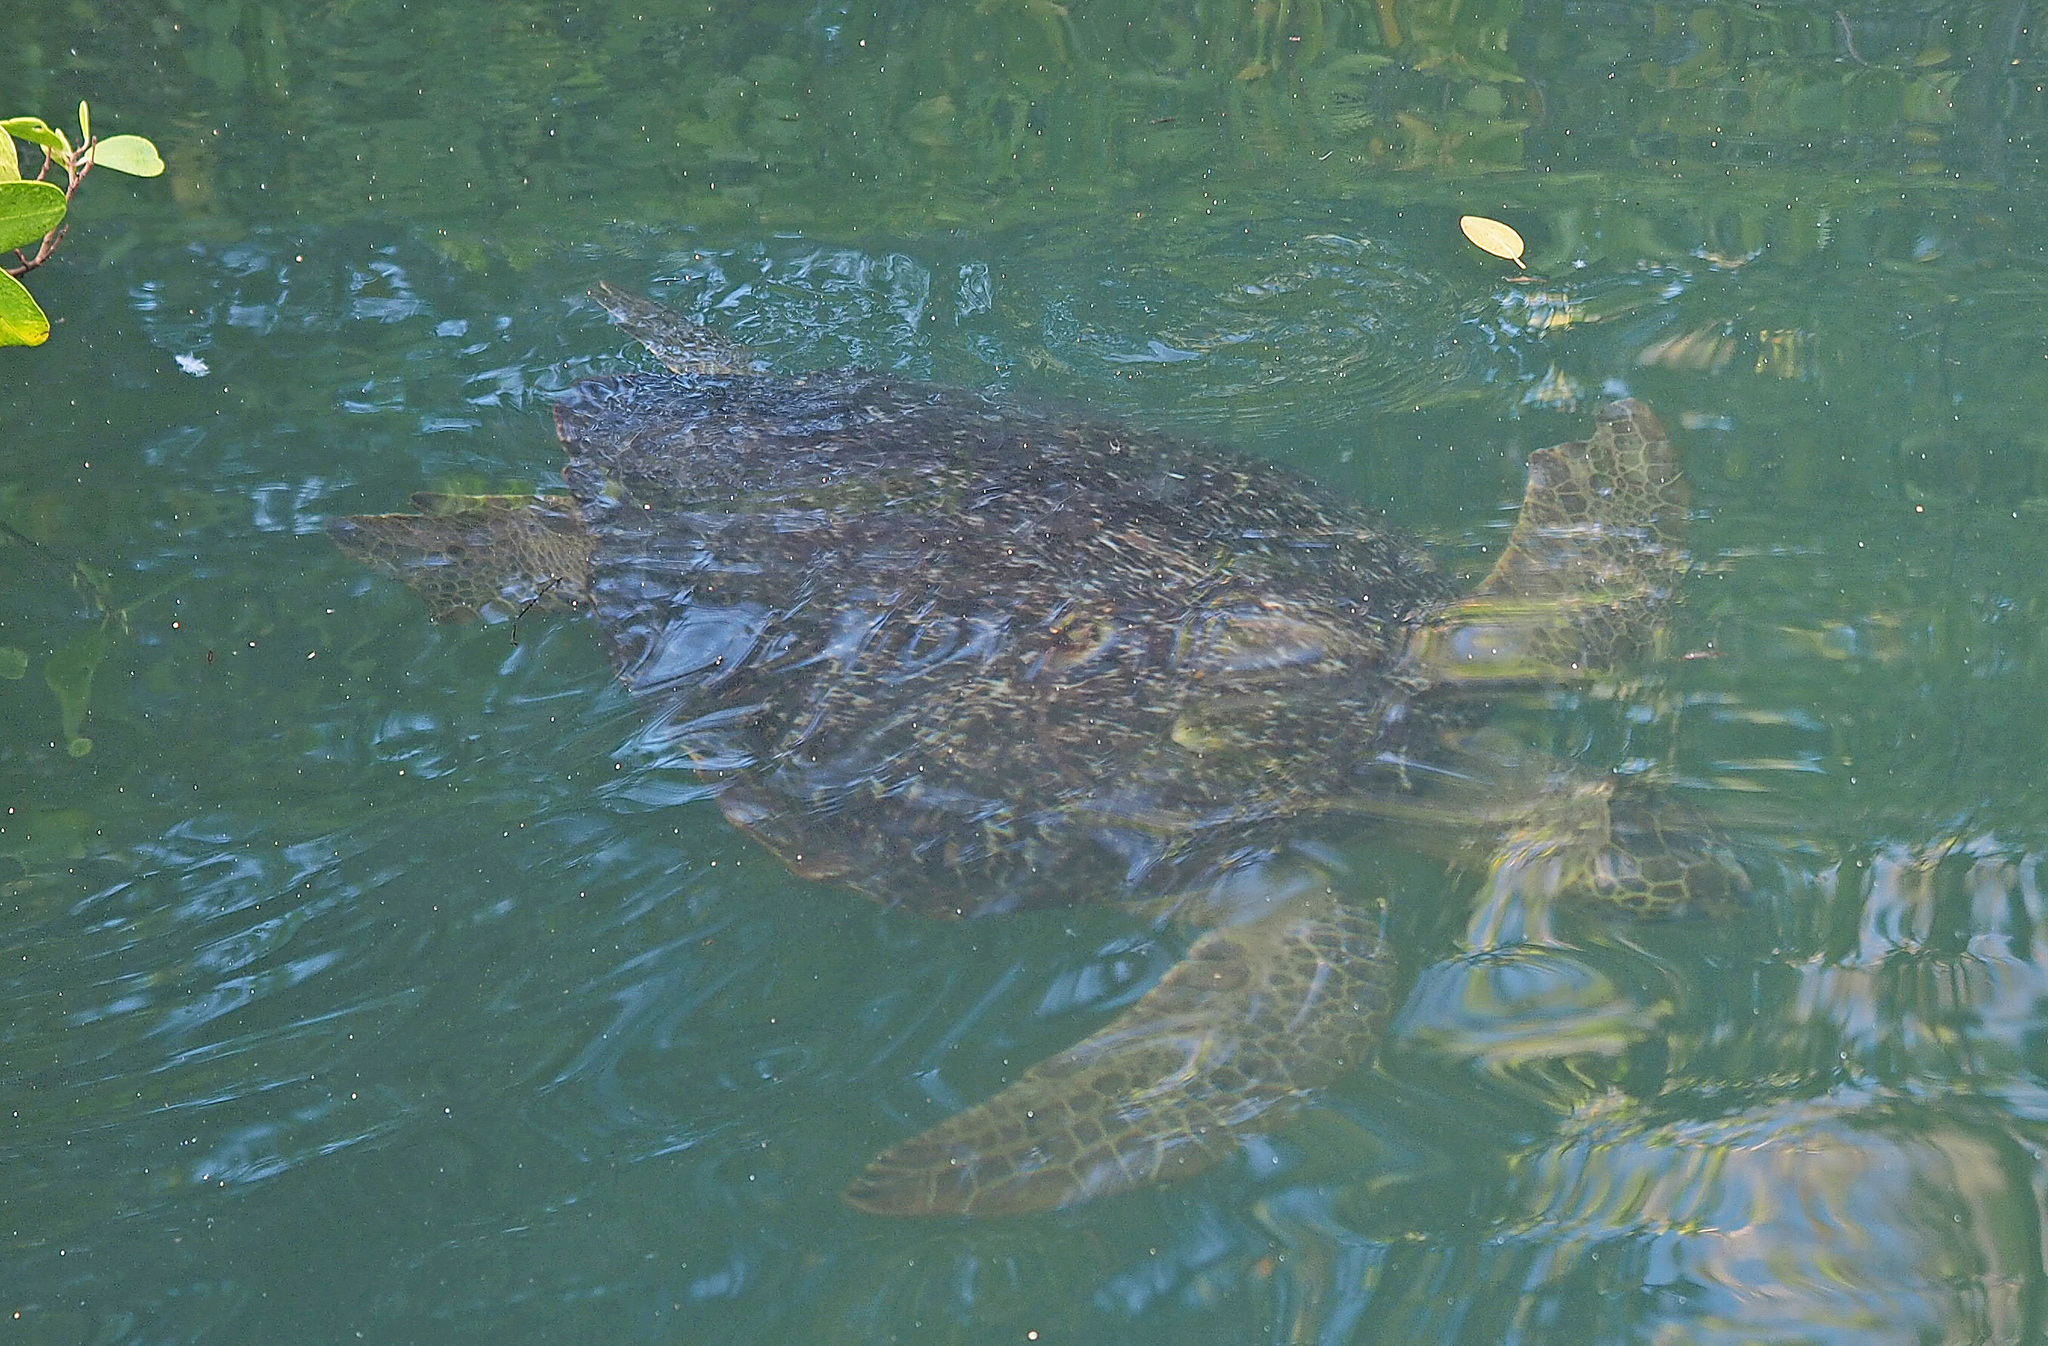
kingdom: Animalia
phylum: Chordata
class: Testudines
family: Cheloniidae
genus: Chelonia
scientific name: Chelonia mydas
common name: Green turtle
